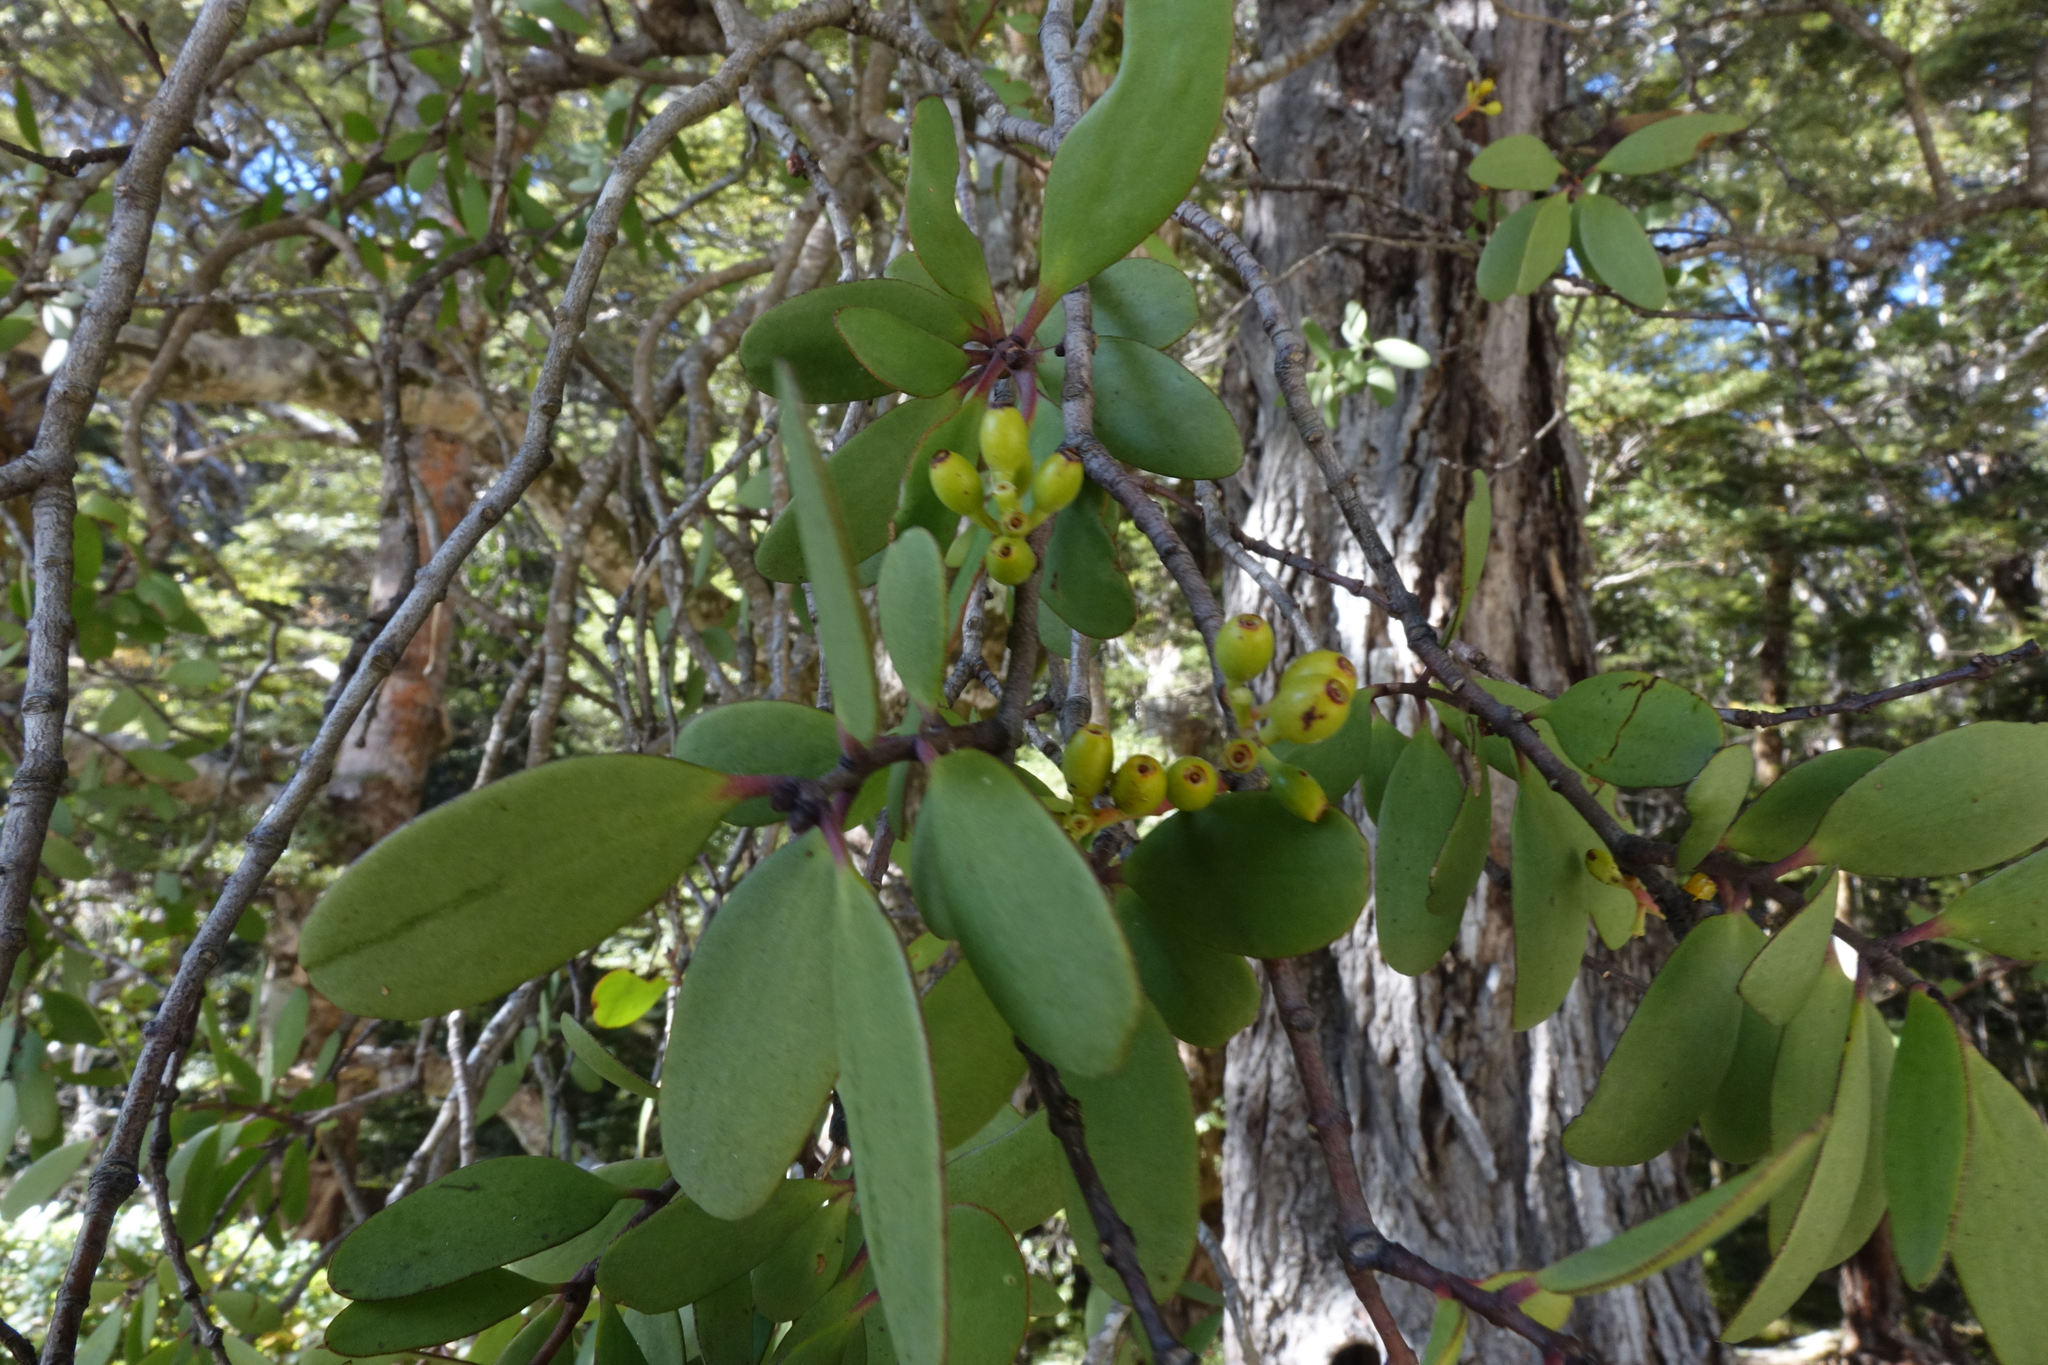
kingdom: Plantae
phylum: Tracheophyta
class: Magnoliopsida
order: Santalales
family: Loranthaceae
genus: Alepis
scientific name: Alepis flavida
